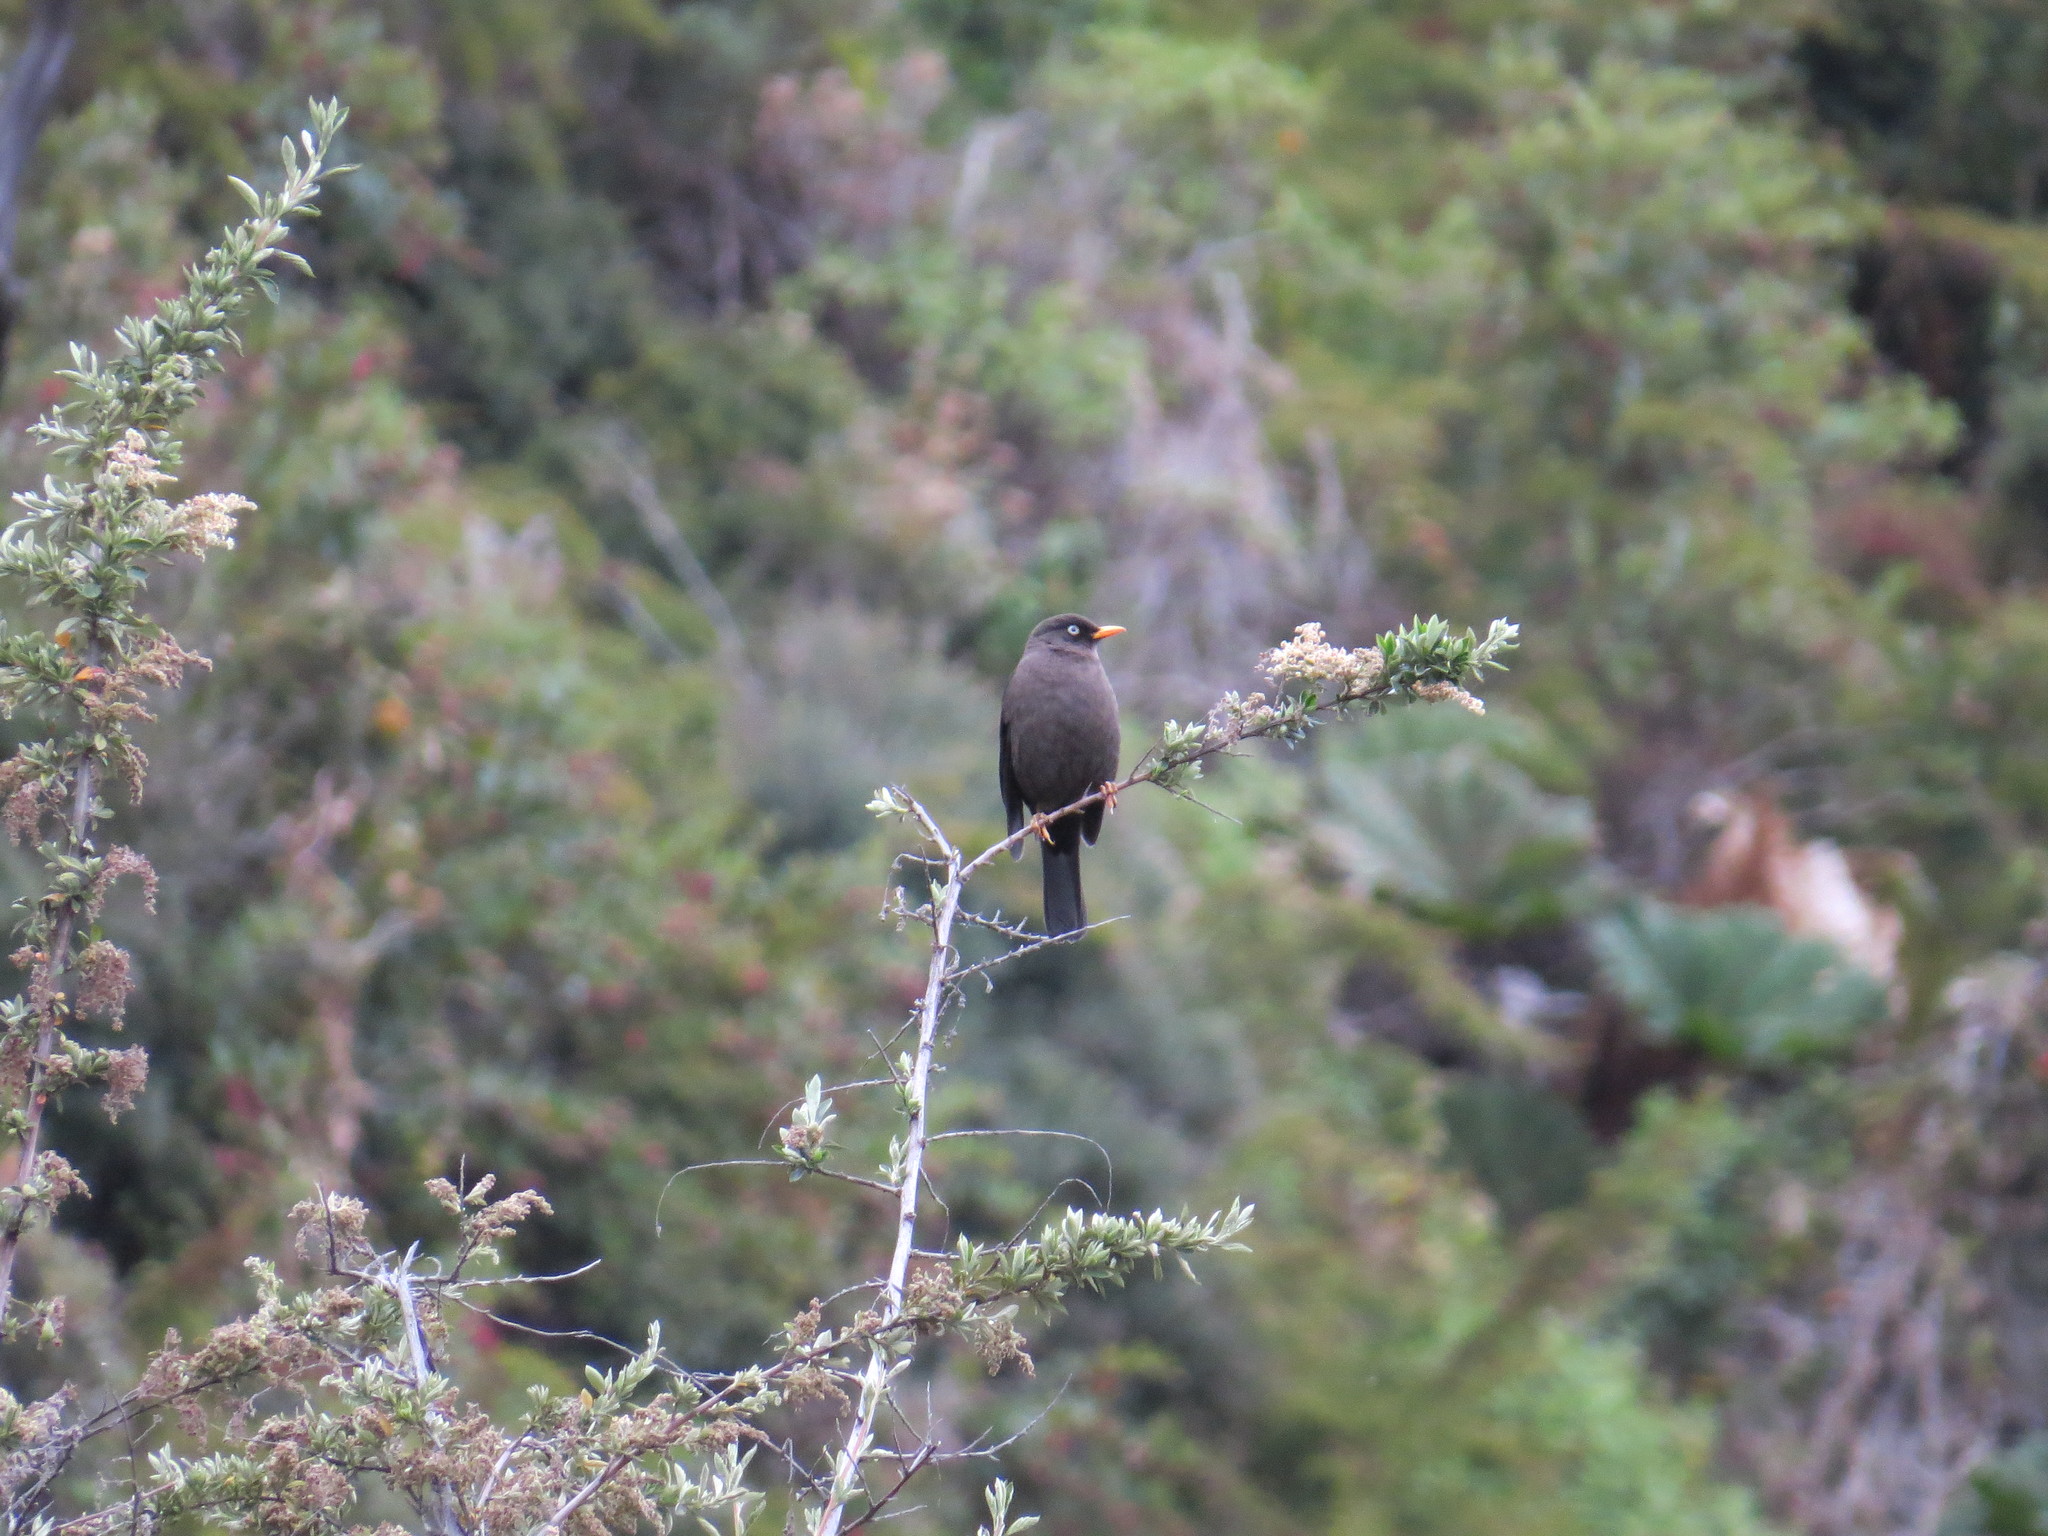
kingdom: Animalia
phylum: Chordata
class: Aves
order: Passeriformes
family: Turdidae
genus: Turdus
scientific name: Turdus nigrescens
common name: Sooty thrush
